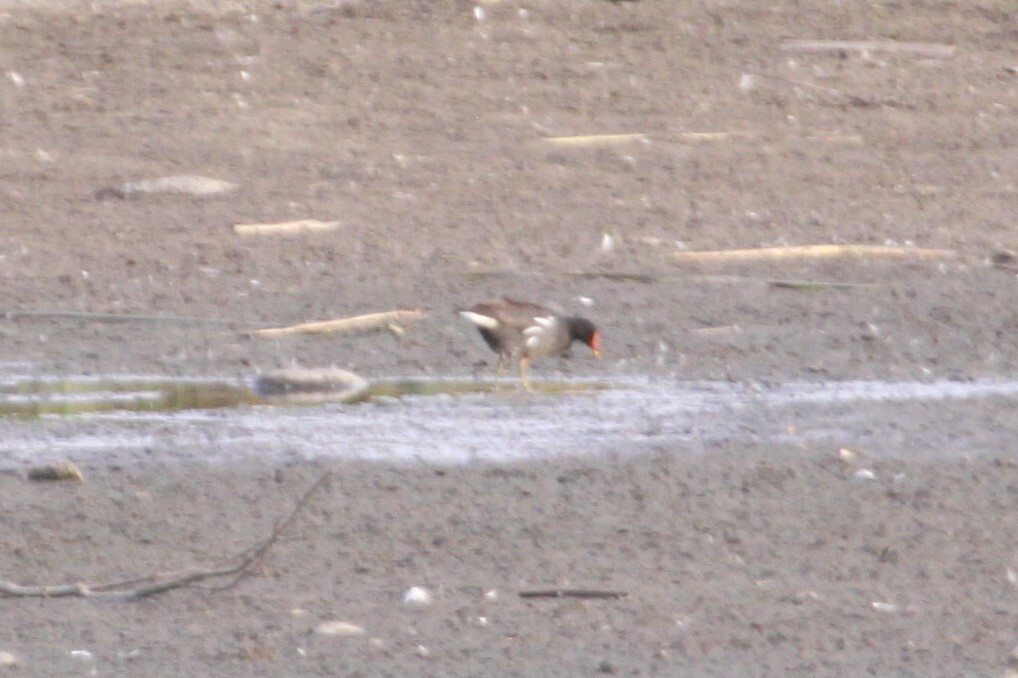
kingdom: Animalia
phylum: Chordata
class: Aves
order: Gruiformes
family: Rallidae
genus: Gallinula
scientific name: Gallinula chloropus
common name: Common moorhen
